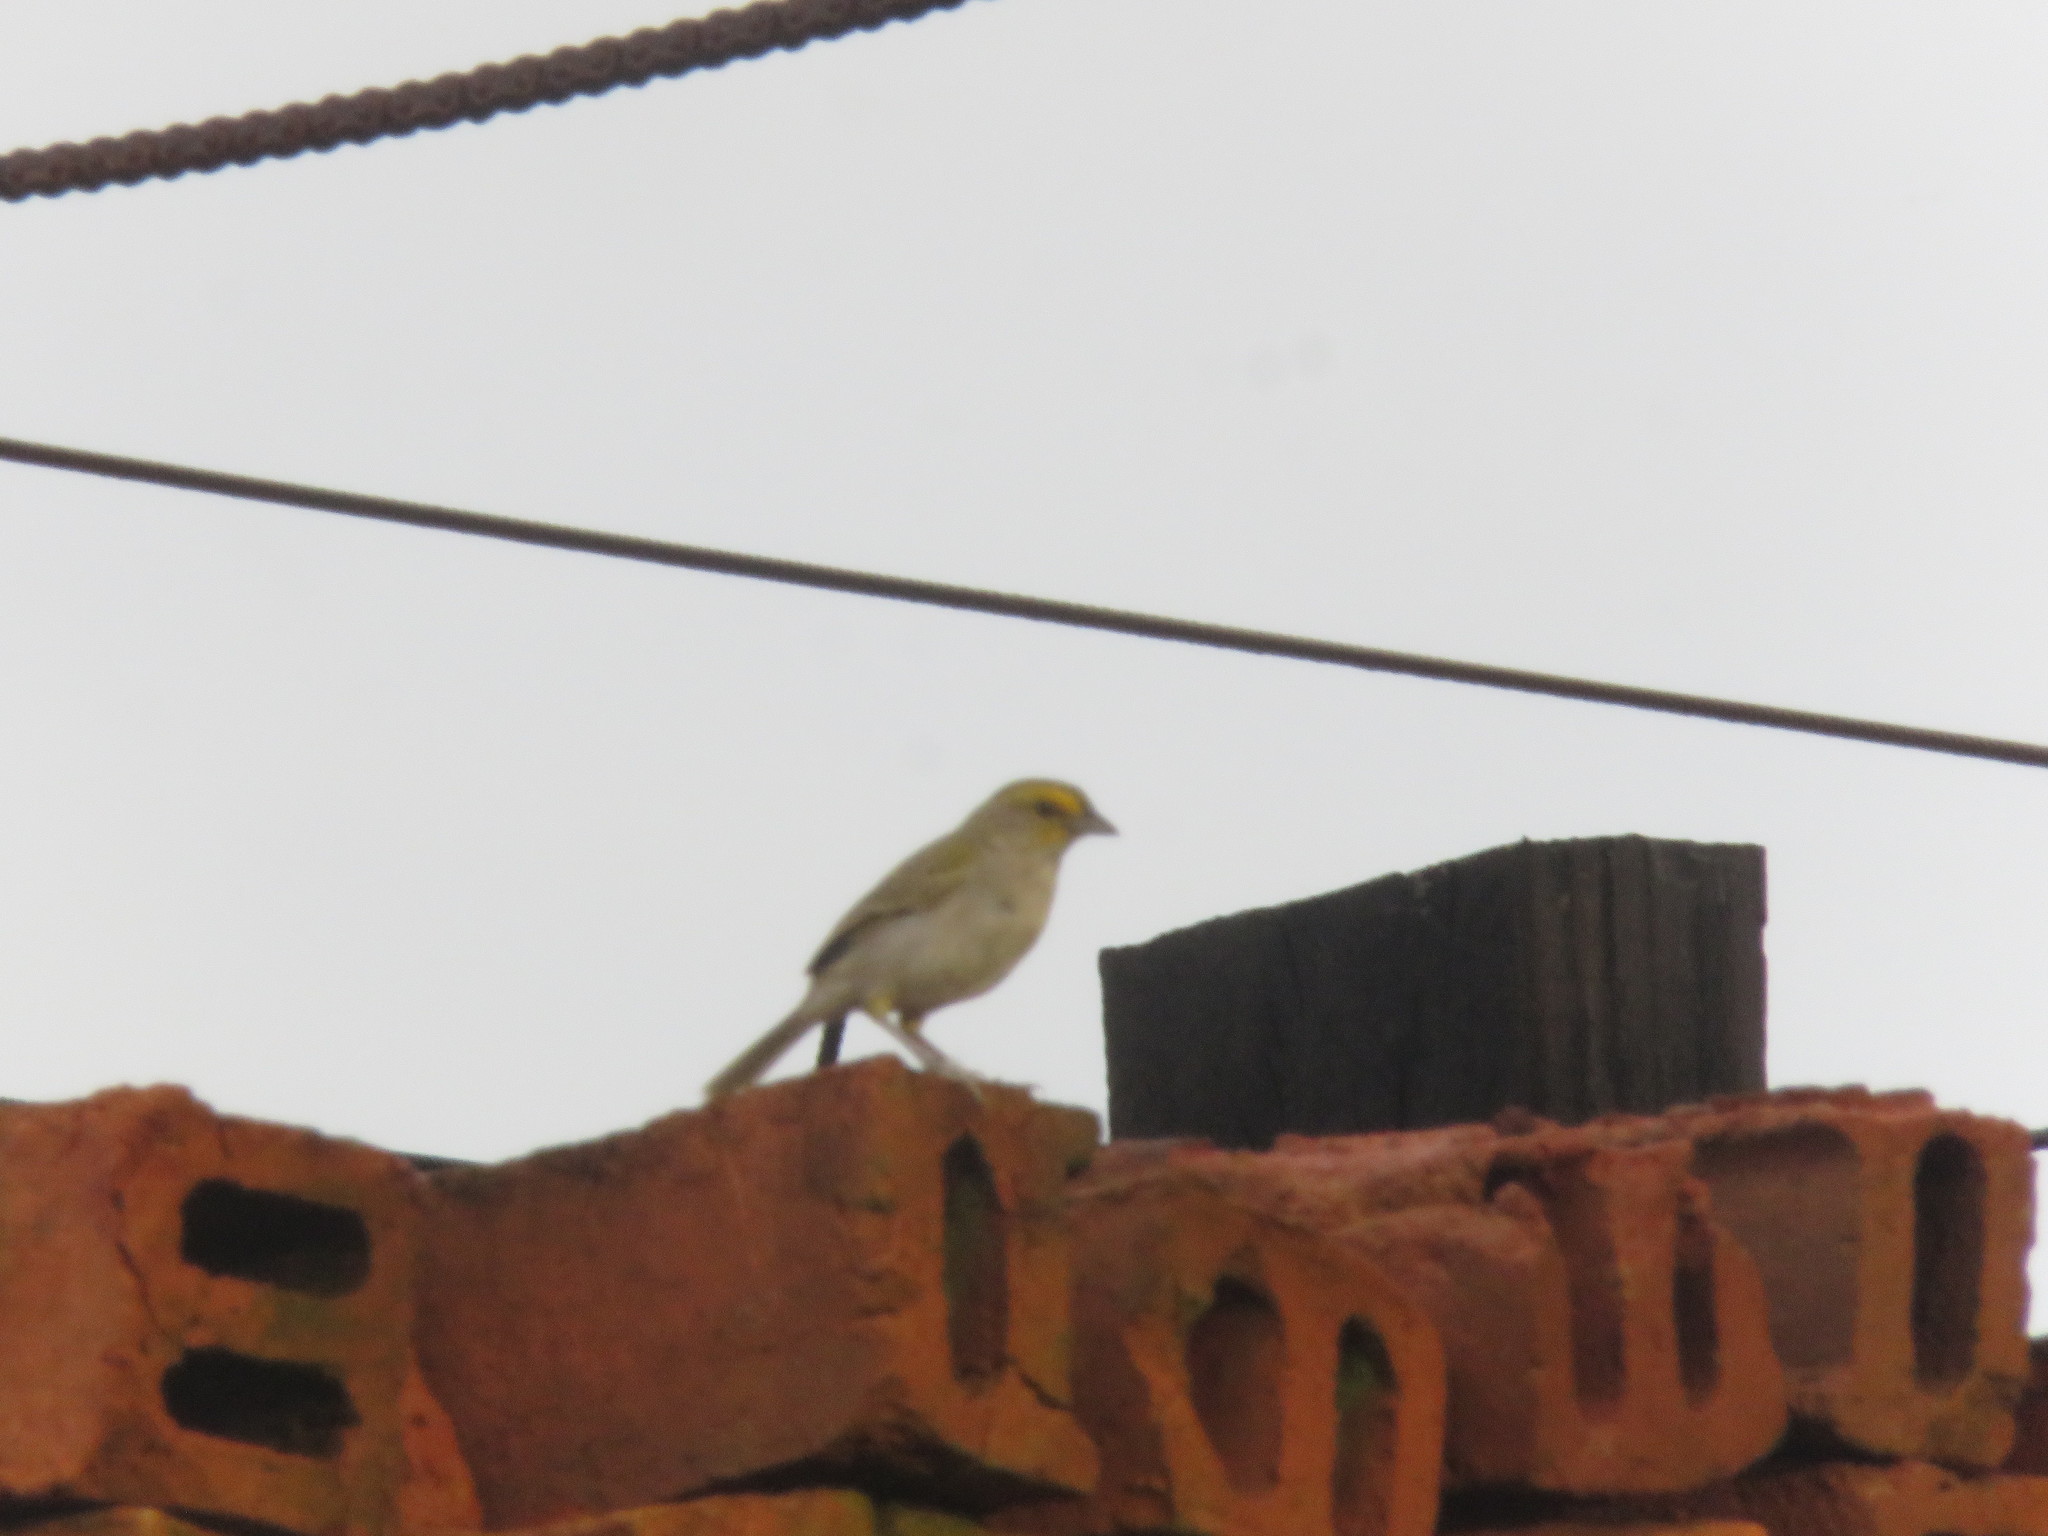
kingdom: Animalia
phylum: Chordata
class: Aves
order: Passeriformes
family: Passerellidae
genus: Ammodramus
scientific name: Ammodramus aurifrons
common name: Yellow-browed sparrow
